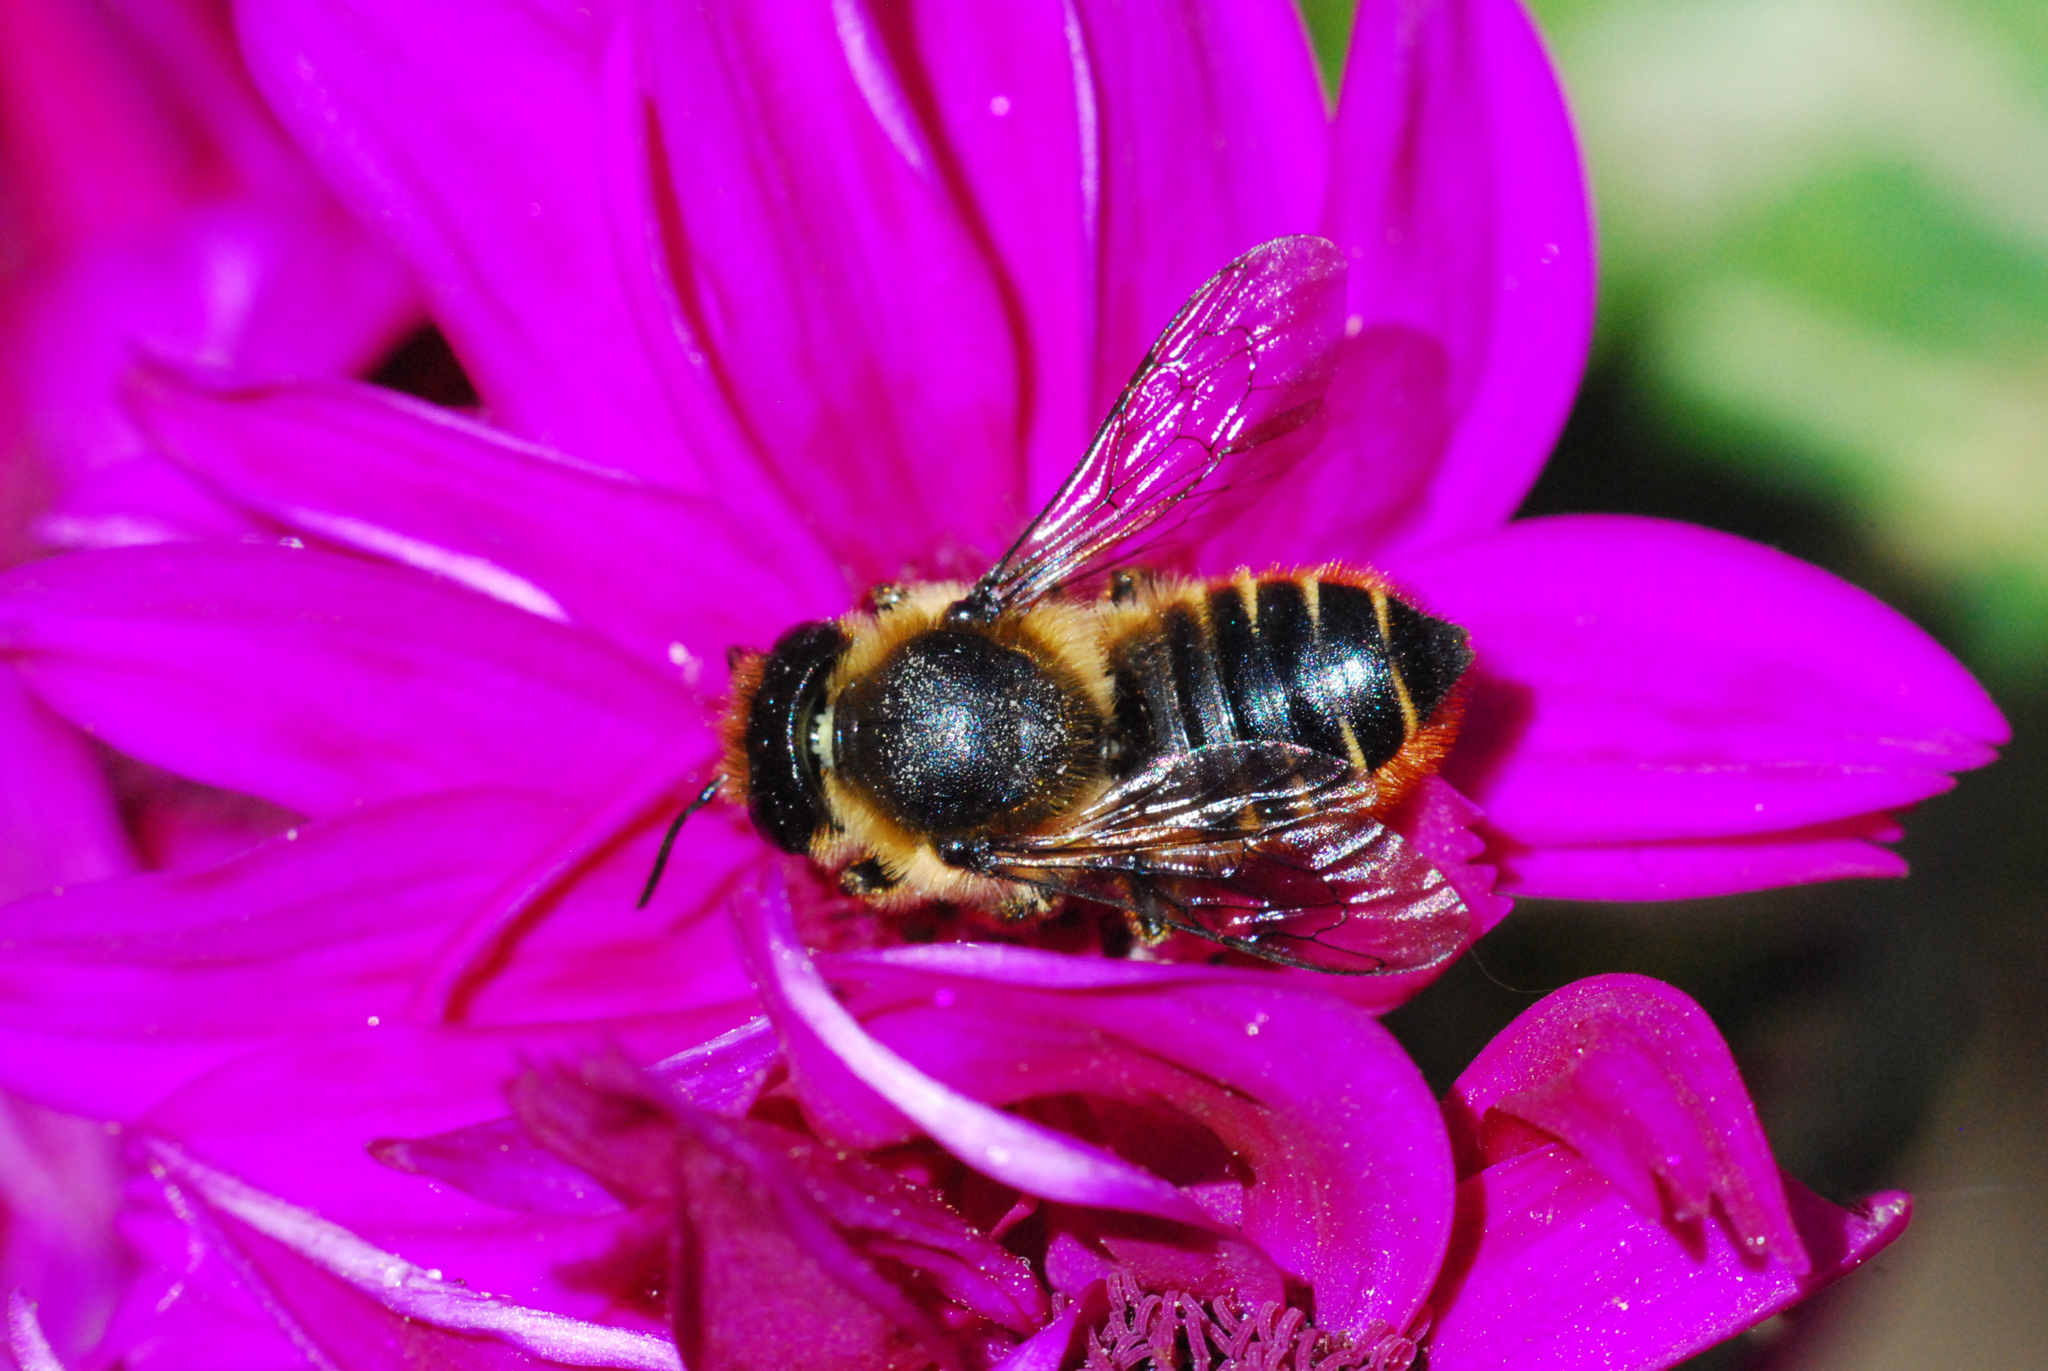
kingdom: Animalia
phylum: Arthropoda
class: Insecta
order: Hymenoptera
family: Megachilidae
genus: Megachile
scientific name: Megachile centuncularis
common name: Patchwork leafcutter bee
